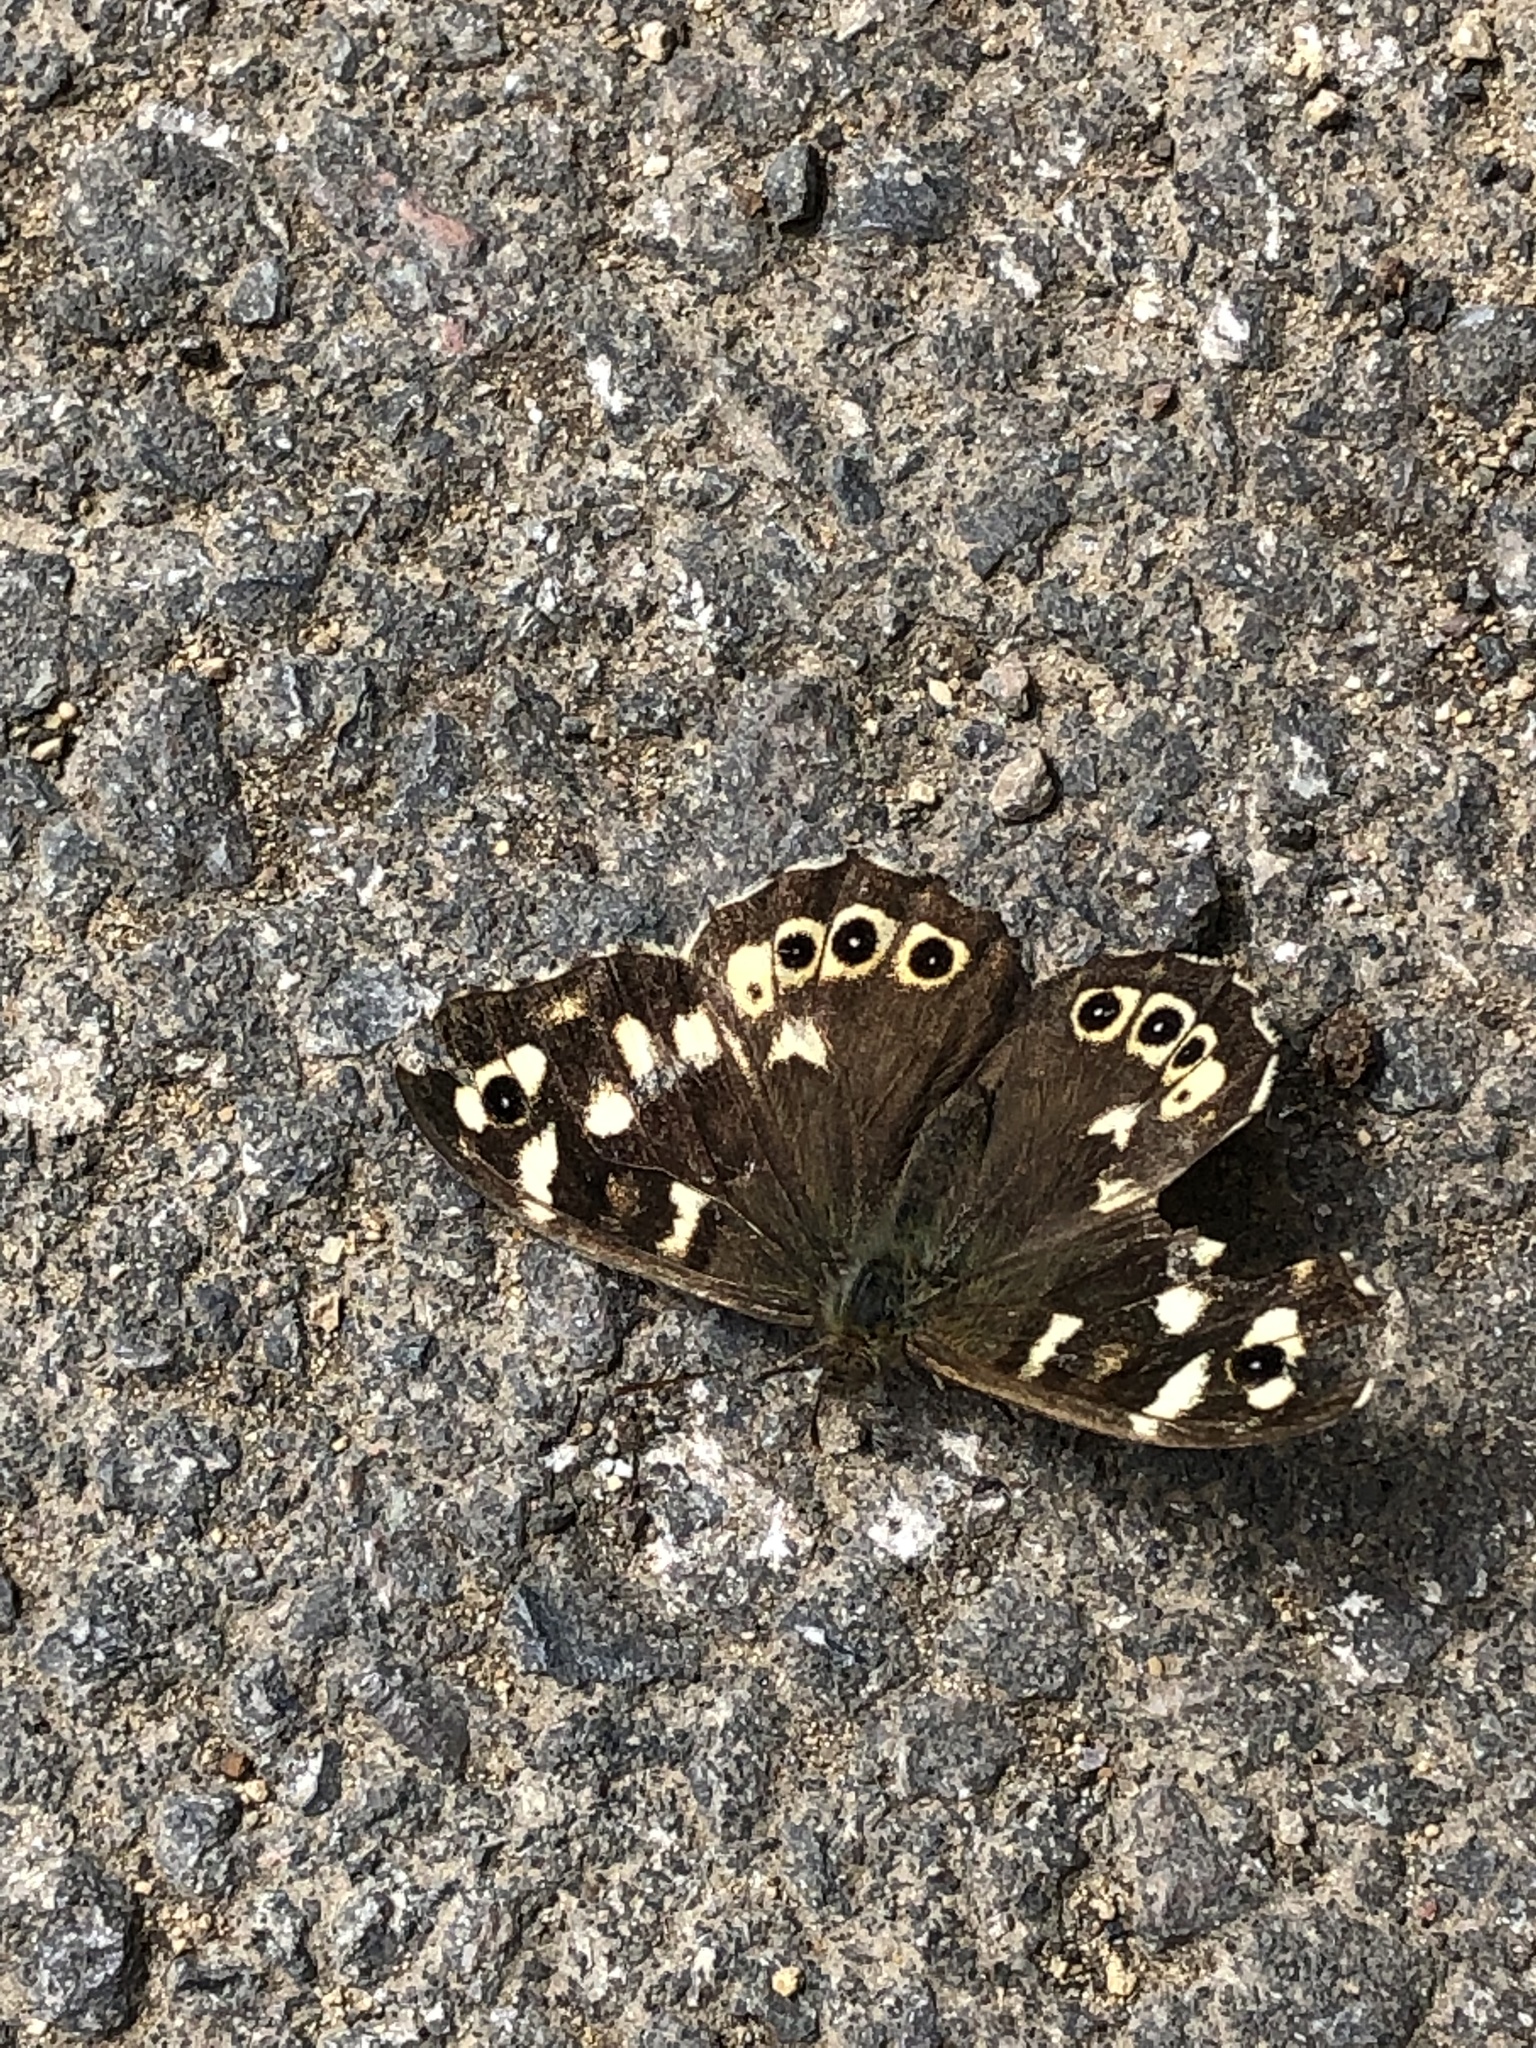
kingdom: Animalia
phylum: Arthropoda
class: Insecta
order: Lepidoptera
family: Nymphalidae
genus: Pararge
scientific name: Pararge aegeria
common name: Speckled wood
